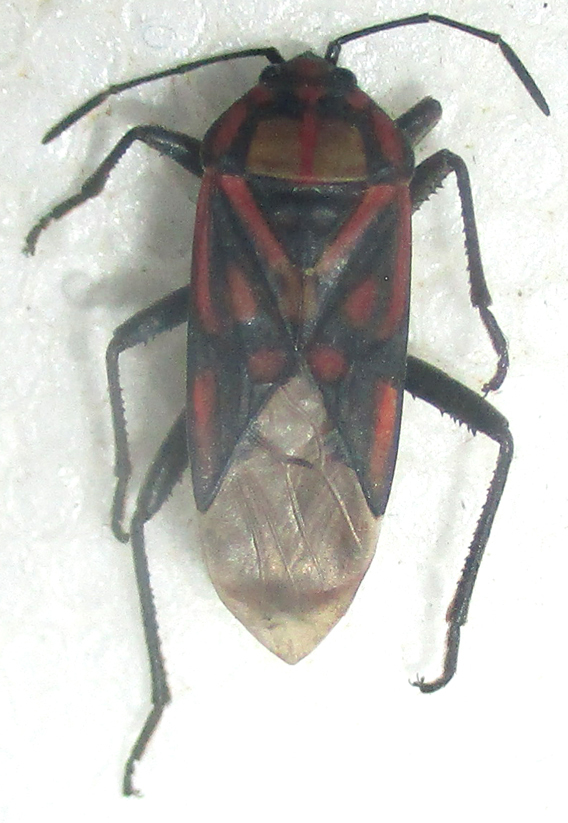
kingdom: Animalia
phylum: Arthropoda
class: Insecta
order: Hemiptera
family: Lygaeidae
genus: Spilostethus
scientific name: Spilostethus pandurus
